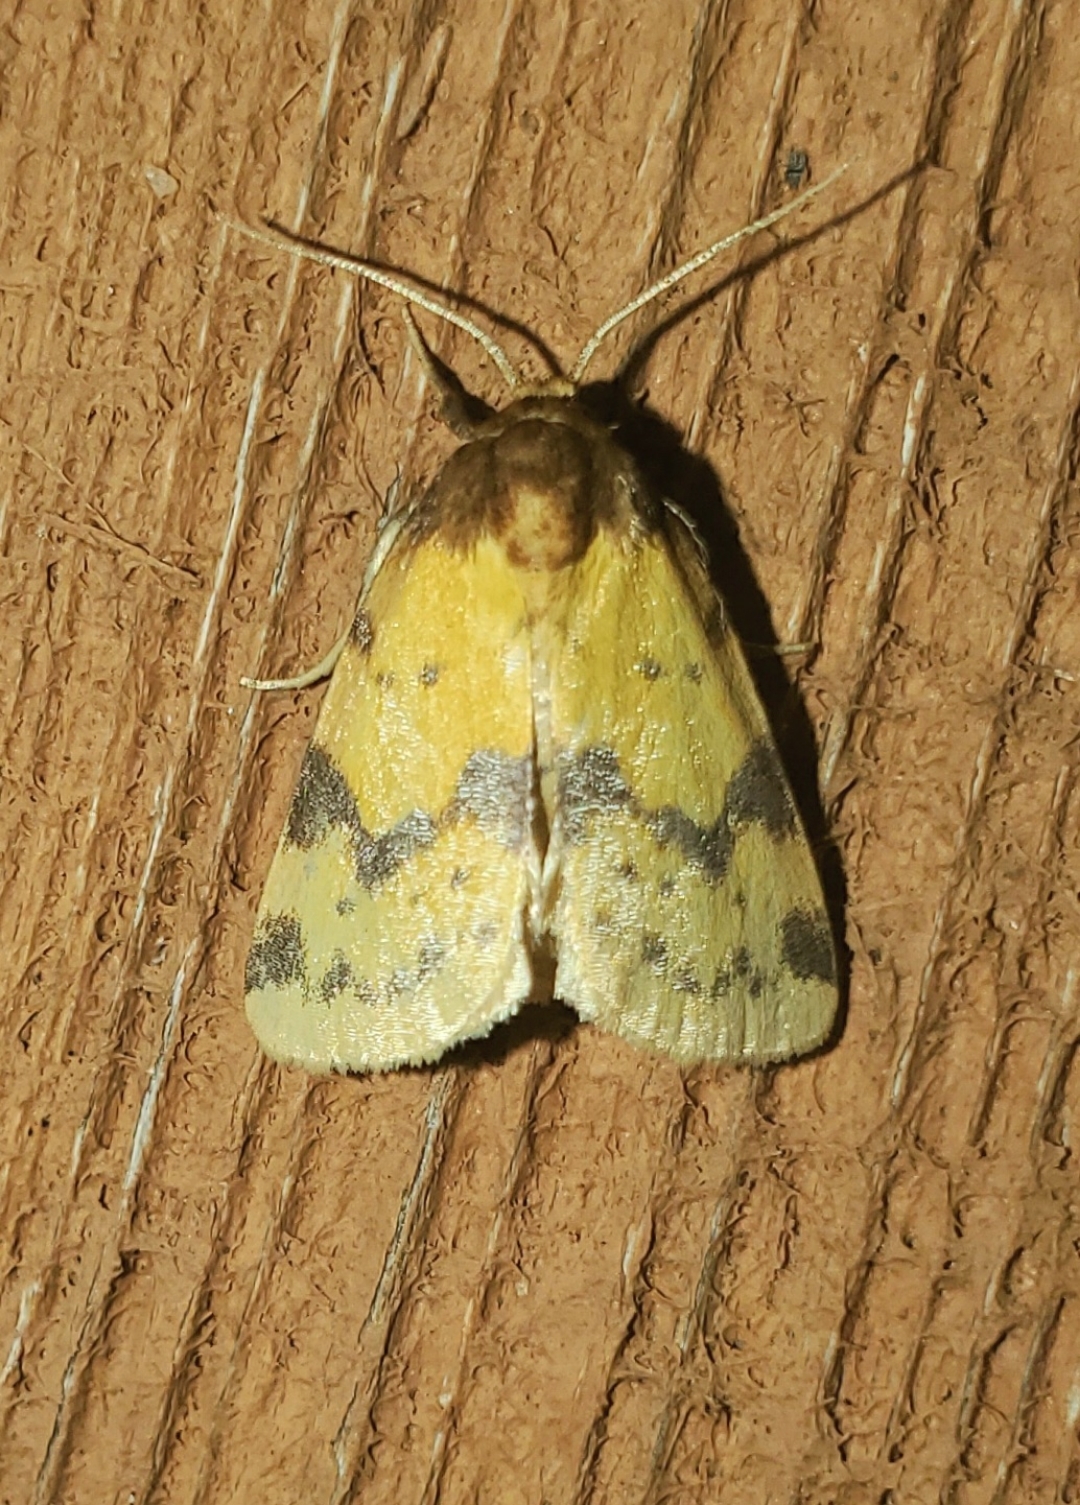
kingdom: Animalia
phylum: Arthropoda
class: Insecta
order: Lepidoptera
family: Noctuidae
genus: Azenia
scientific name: Azenia obtusa
